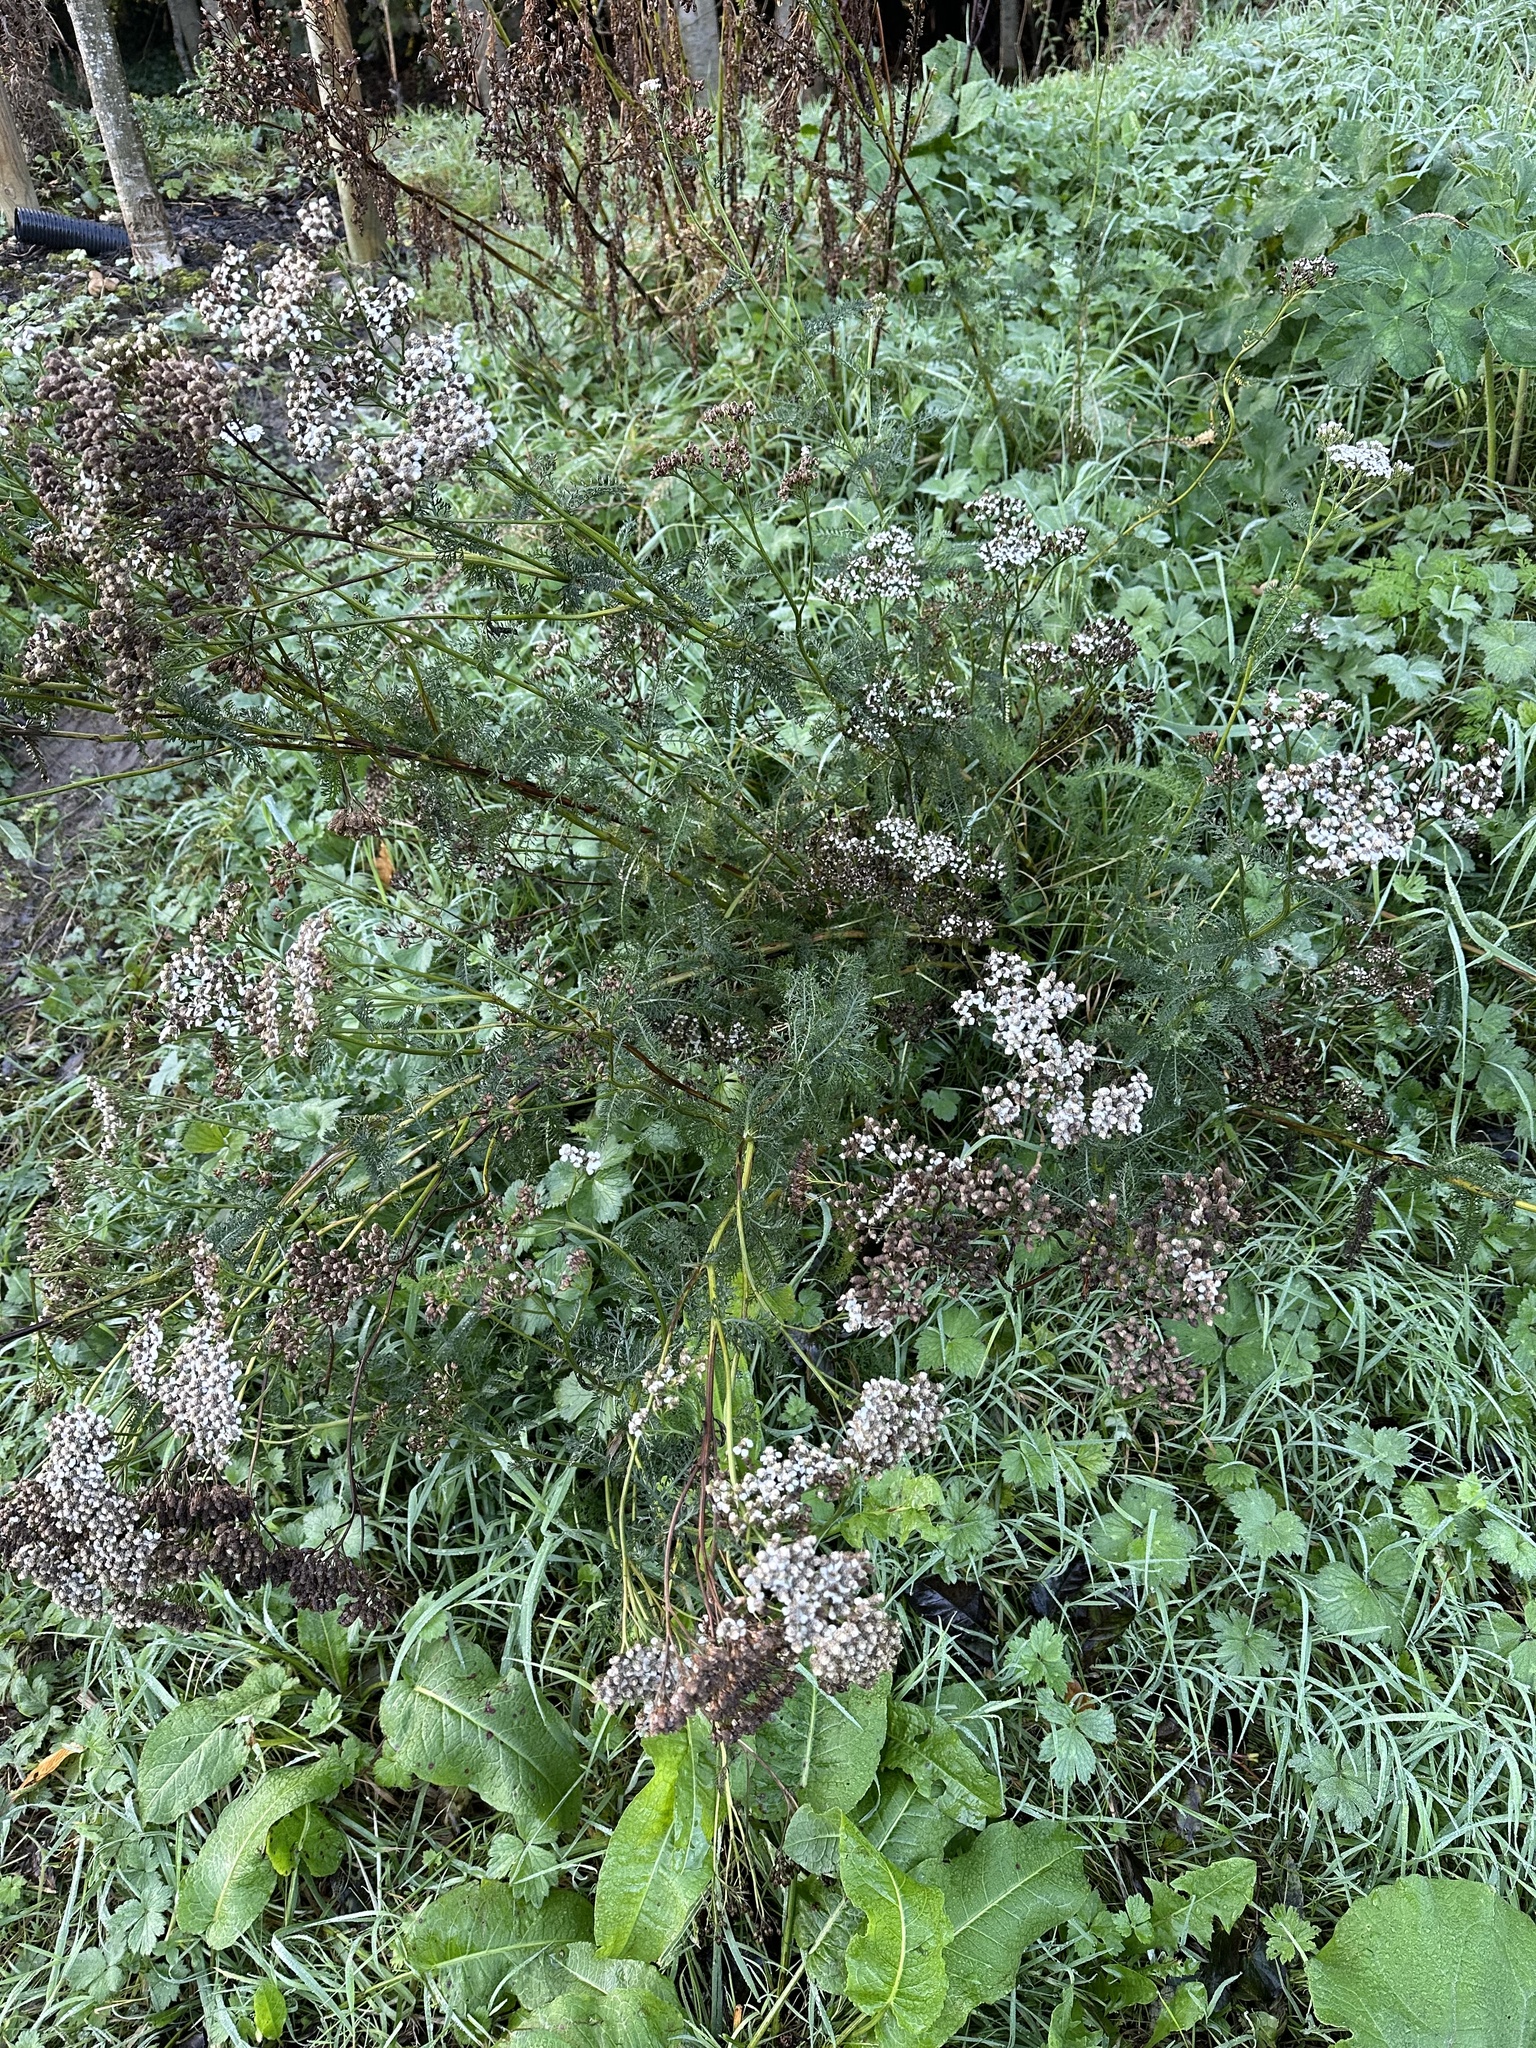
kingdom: Plantae
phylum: Tracheophyta
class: Magnoliopsida
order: Asterales
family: Asteraceae
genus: Achillea
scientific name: Achillea millefolium
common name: Yarrow
